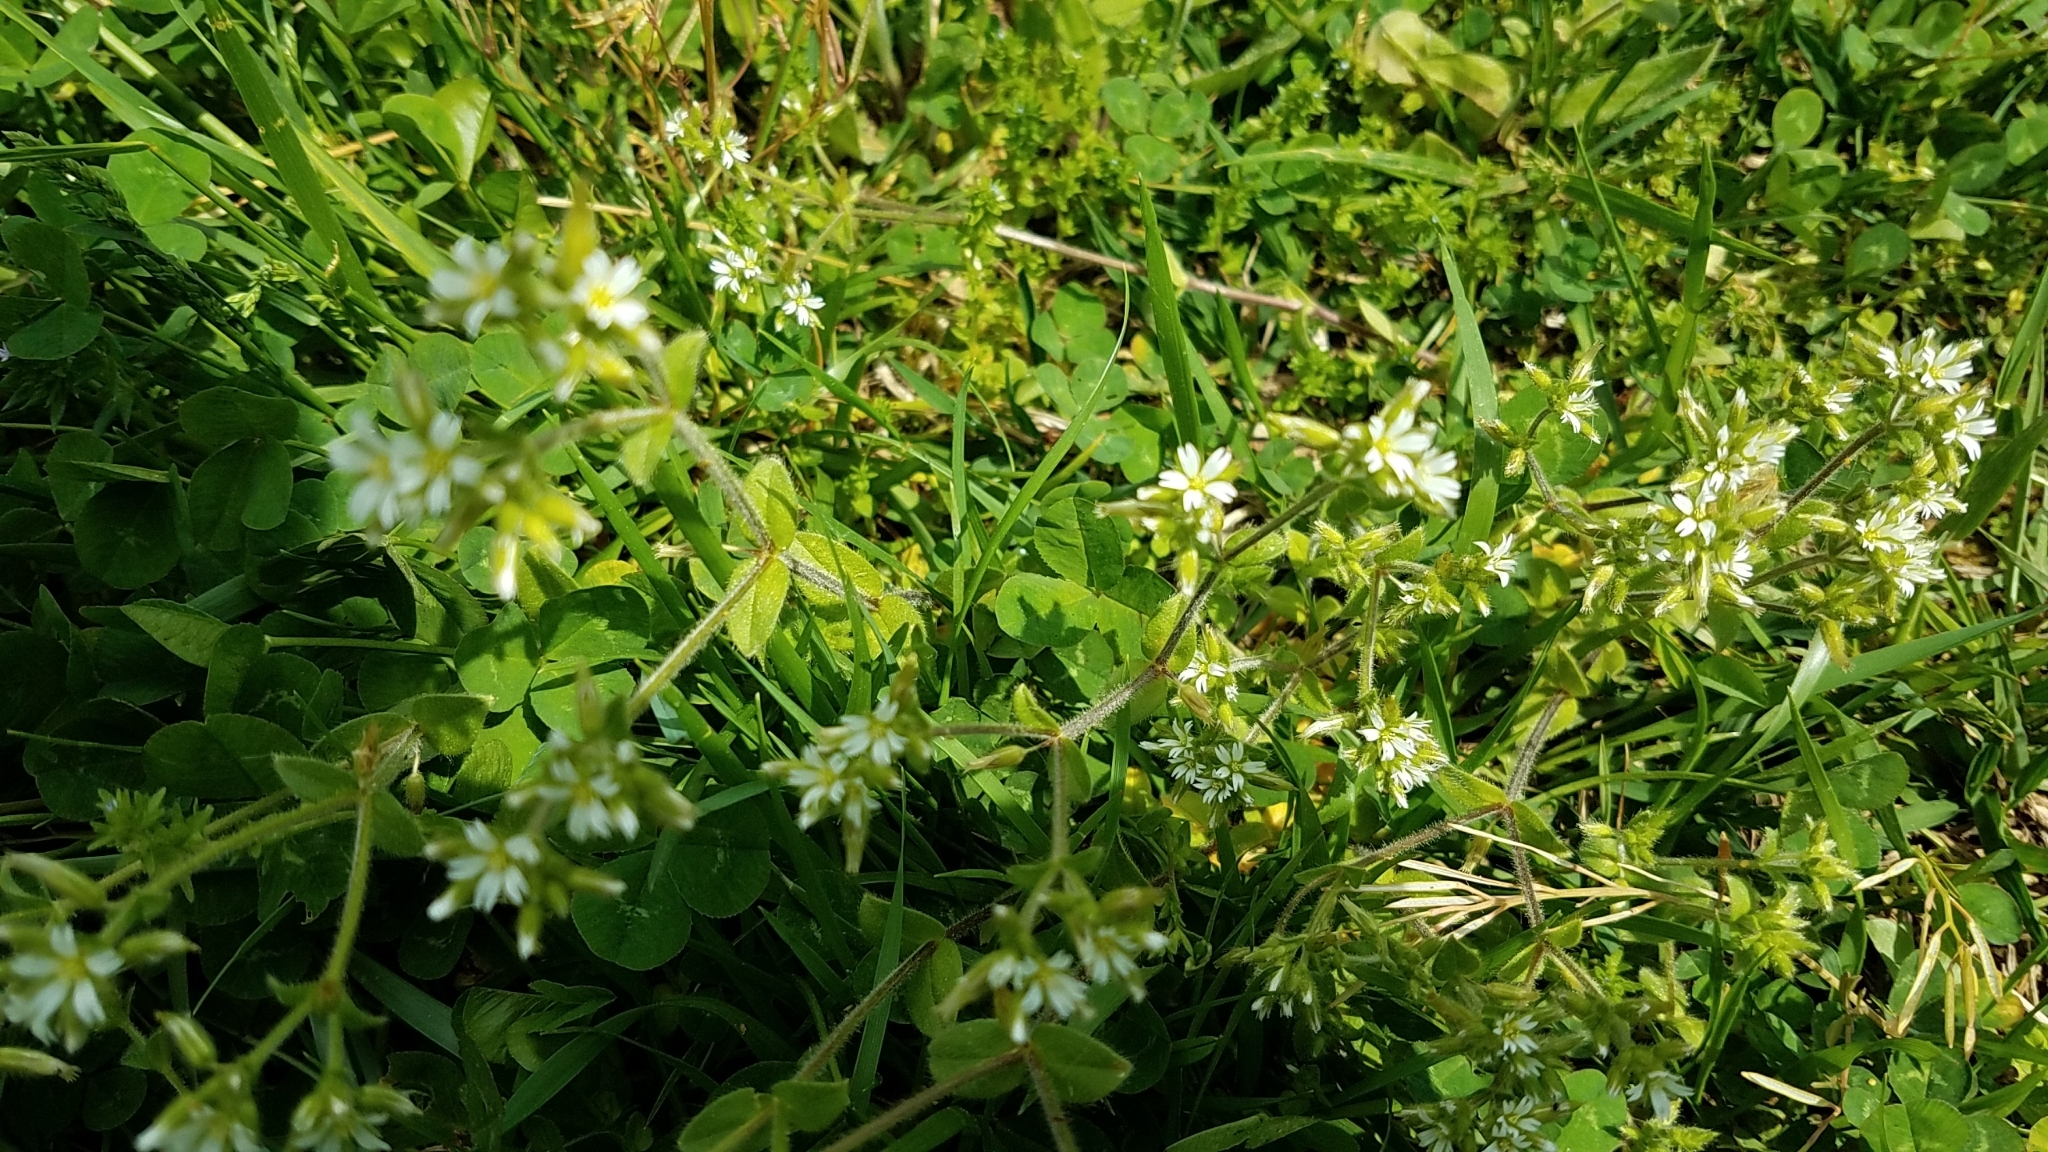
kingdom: Plantae
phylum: Tracheophyta
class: Magnoliopsida
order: Caryophyllales
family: Caryophyllaceae
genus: Cerastium
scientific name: Cerastium fontanum
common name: Common mouse-ear
